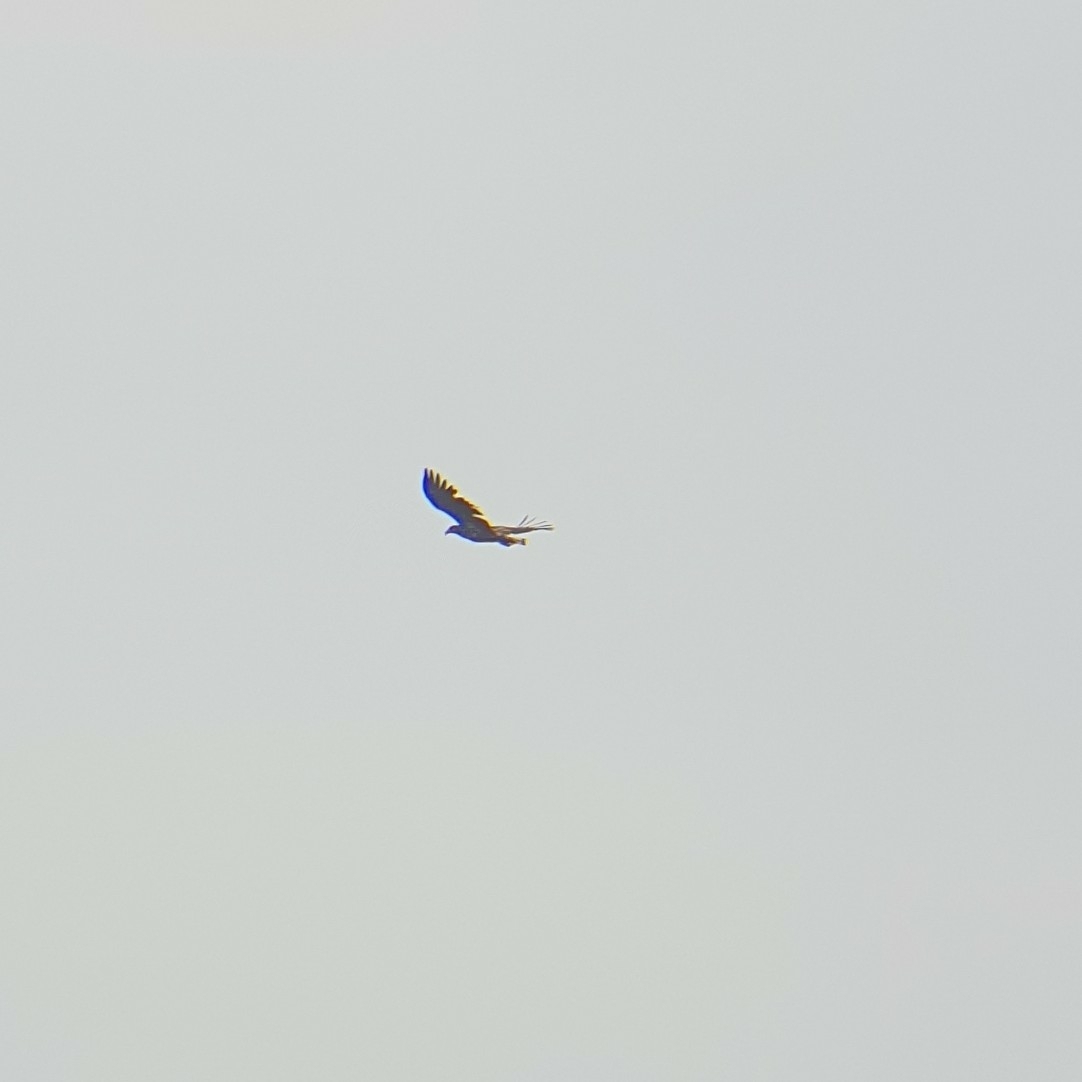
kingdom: Animalia
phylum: Chordata
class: Aves
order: Accipitriformes
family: Accipitridae
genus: Haliaeetus
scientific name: Haliaeetus albicilla
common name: White-tailed eagle
